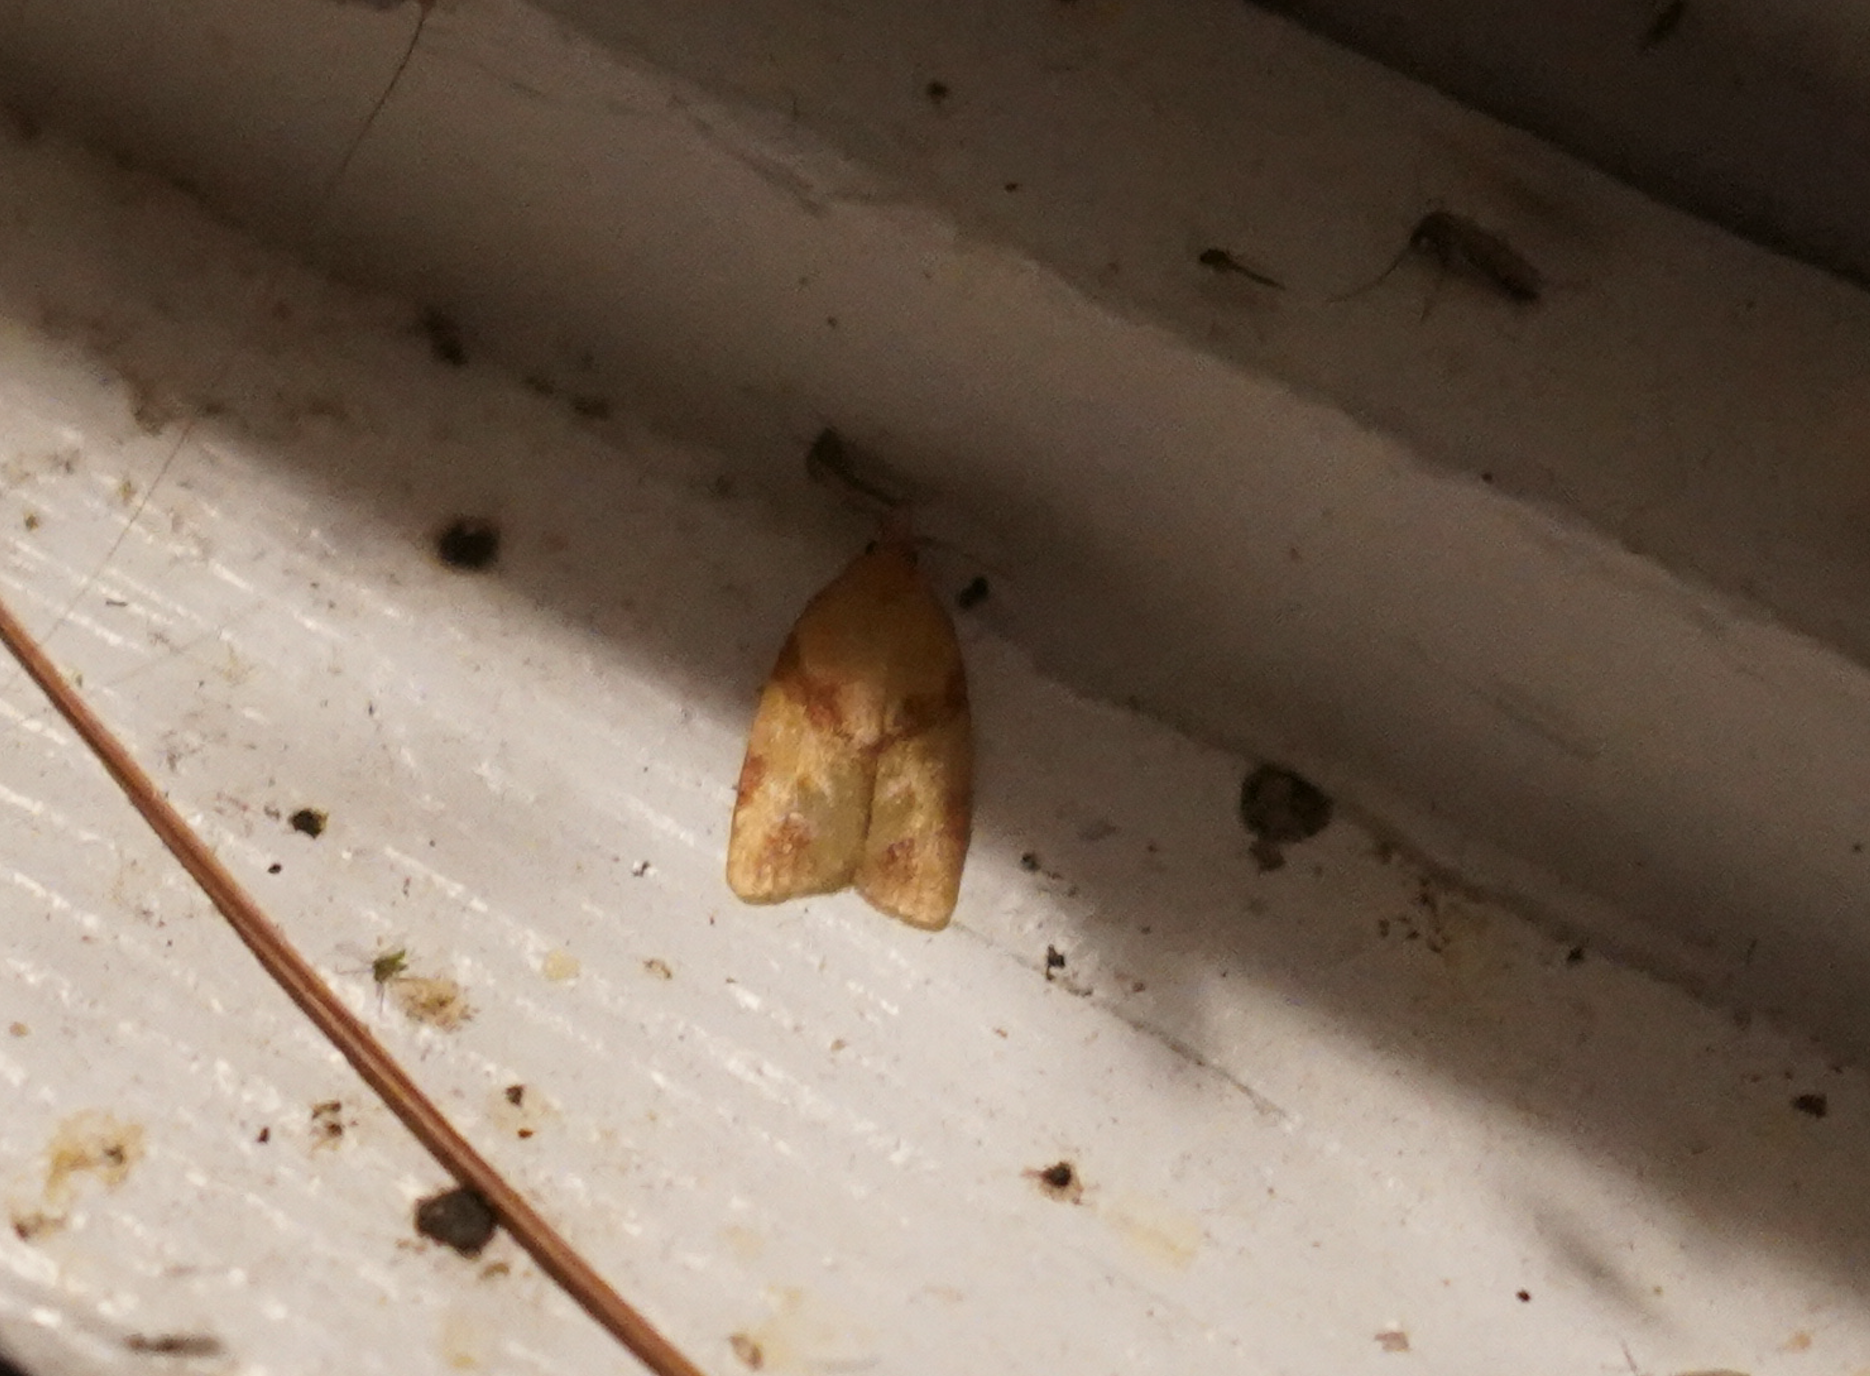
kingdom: Animalia
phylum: Arthropoda
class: Insecta
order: Lepidoptera
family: Tortricidae
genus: Sparganothis
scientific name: Sparganothis unifasciana
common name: One-lined sparganothis moth
